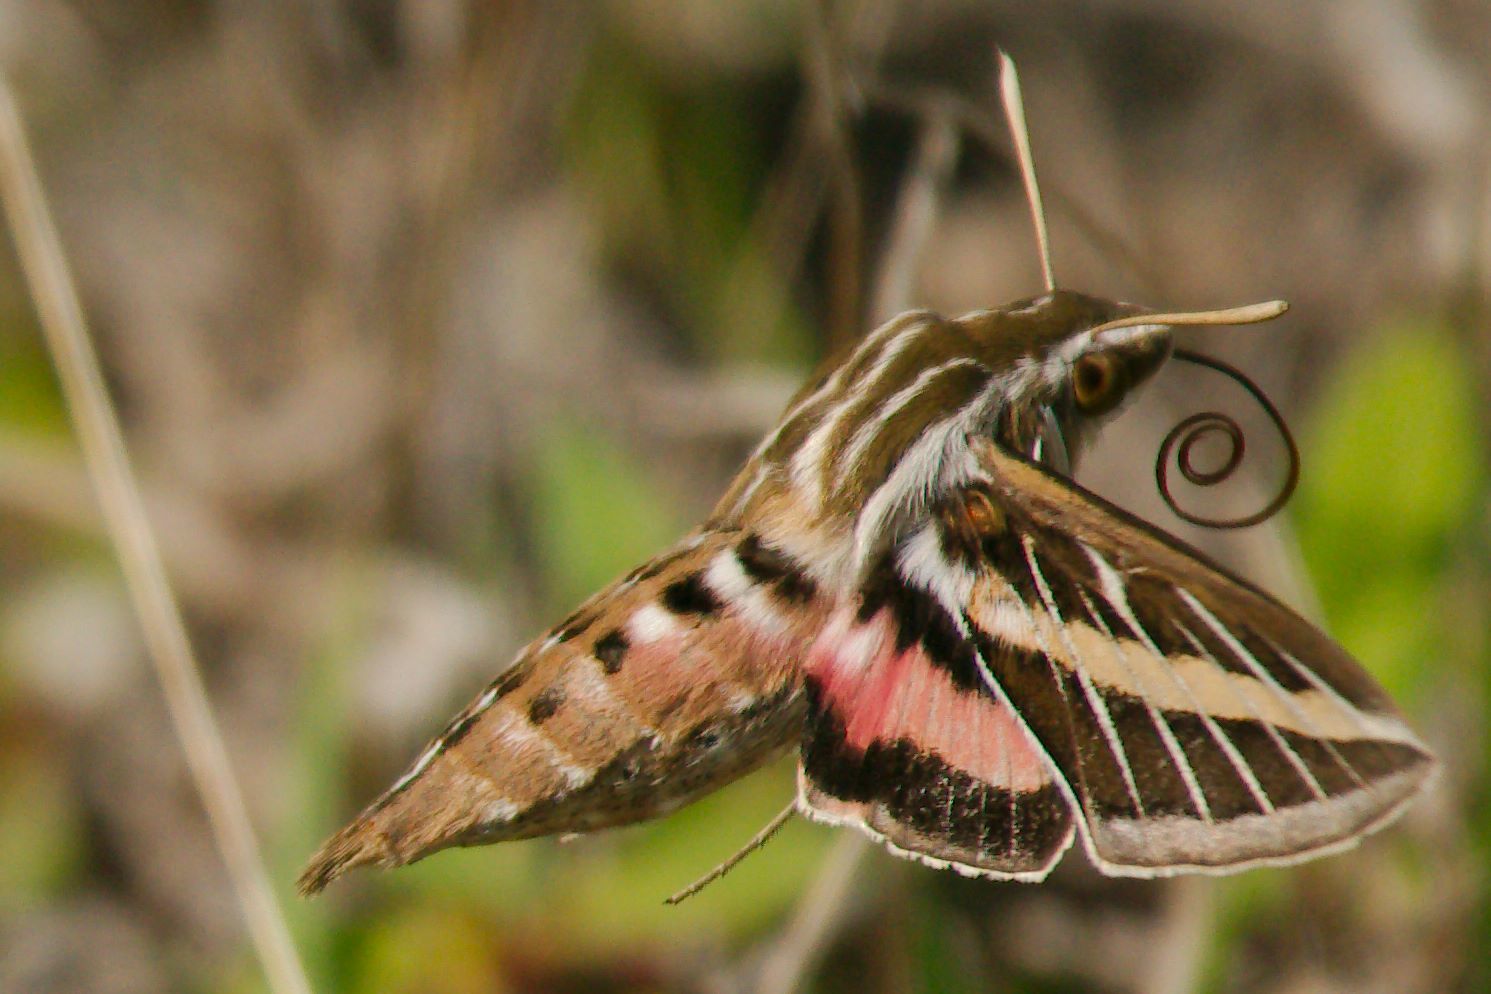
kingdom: Animalia
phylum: Arthropoda
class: Insecta
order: Lepidoptera
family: Sphingidae
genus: Hyles
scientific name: Hyles lineata
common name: White-lined sphinx
